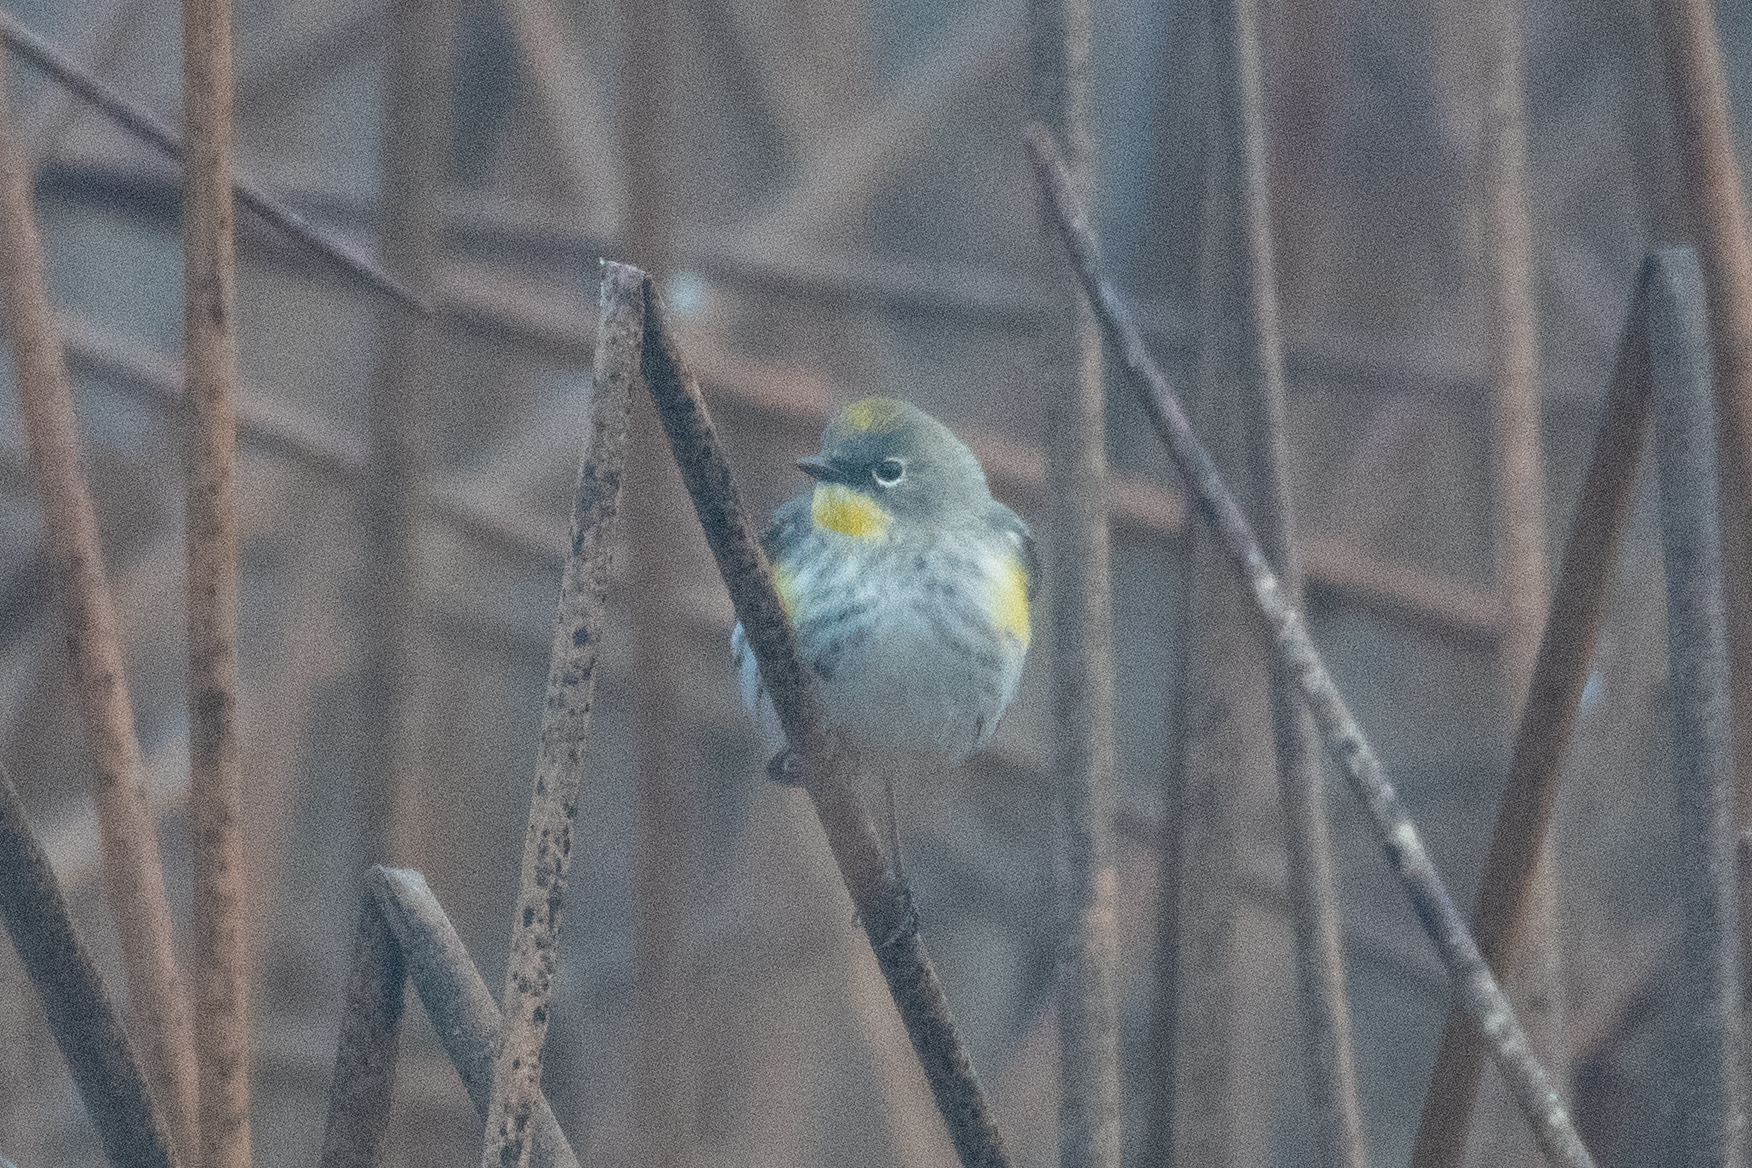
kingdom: Animalia
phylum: Chordata
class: Aves
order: Passeriformes
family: Parulidae
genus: Setophaga
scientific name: Setophaga coronata
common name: Myrtle warbler
